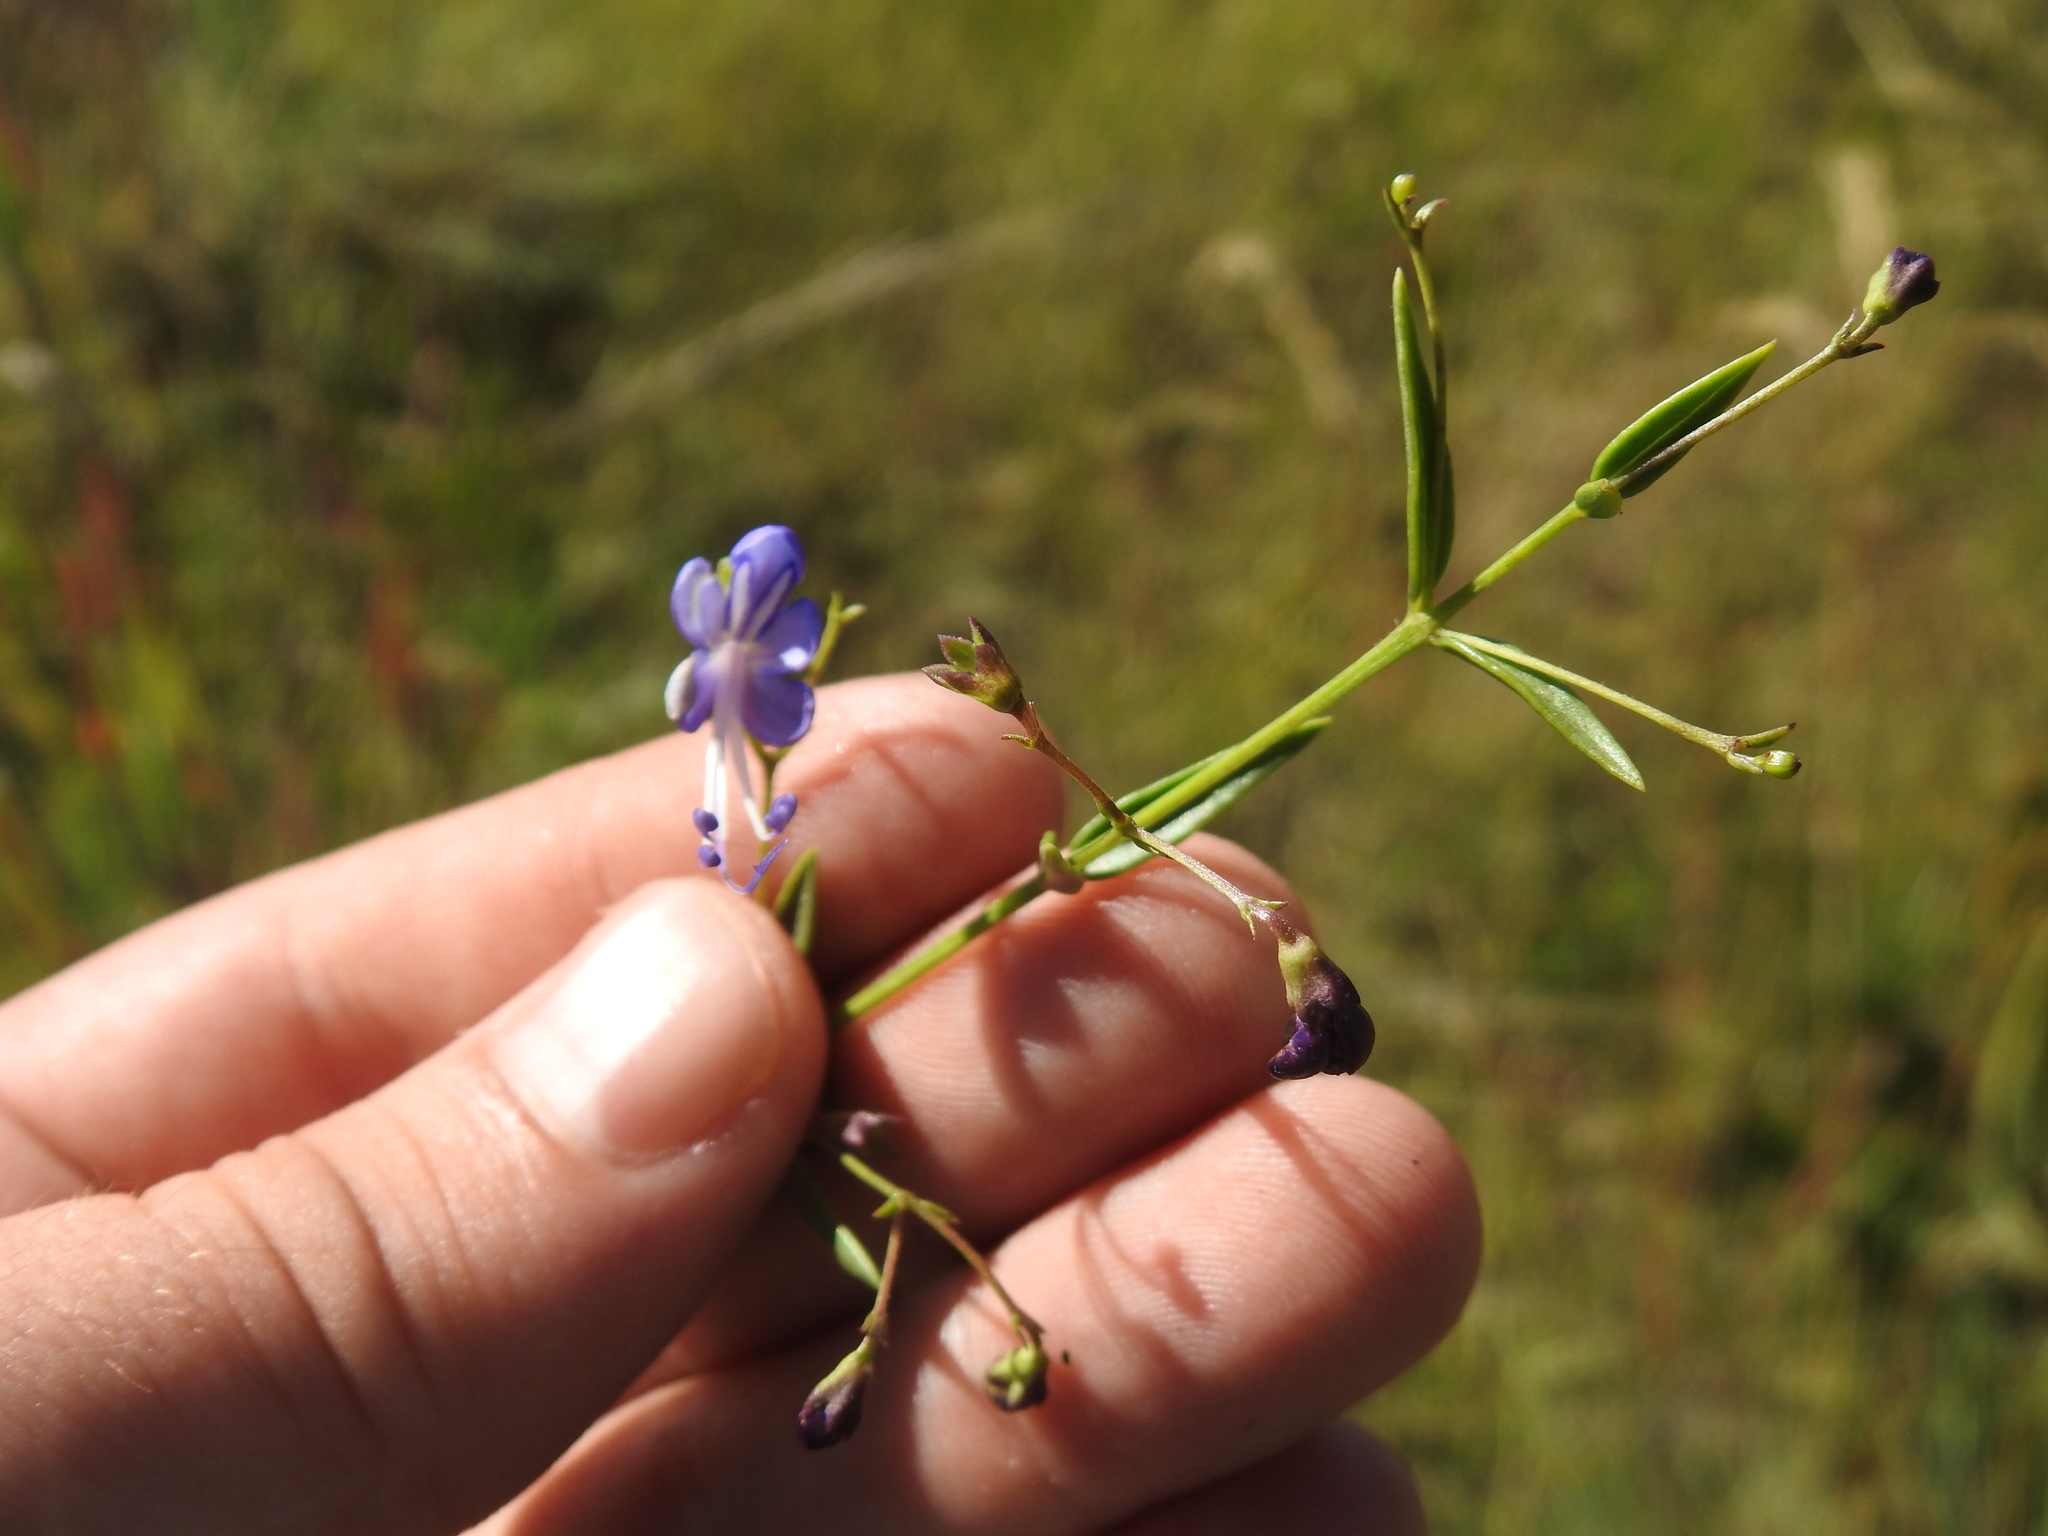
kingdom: Plantae
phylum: Tracheophyta
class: Magnoliopsida
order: Lamiales
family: Lamiaceae
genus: Rotheca
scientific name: Rotheca hirsuta
